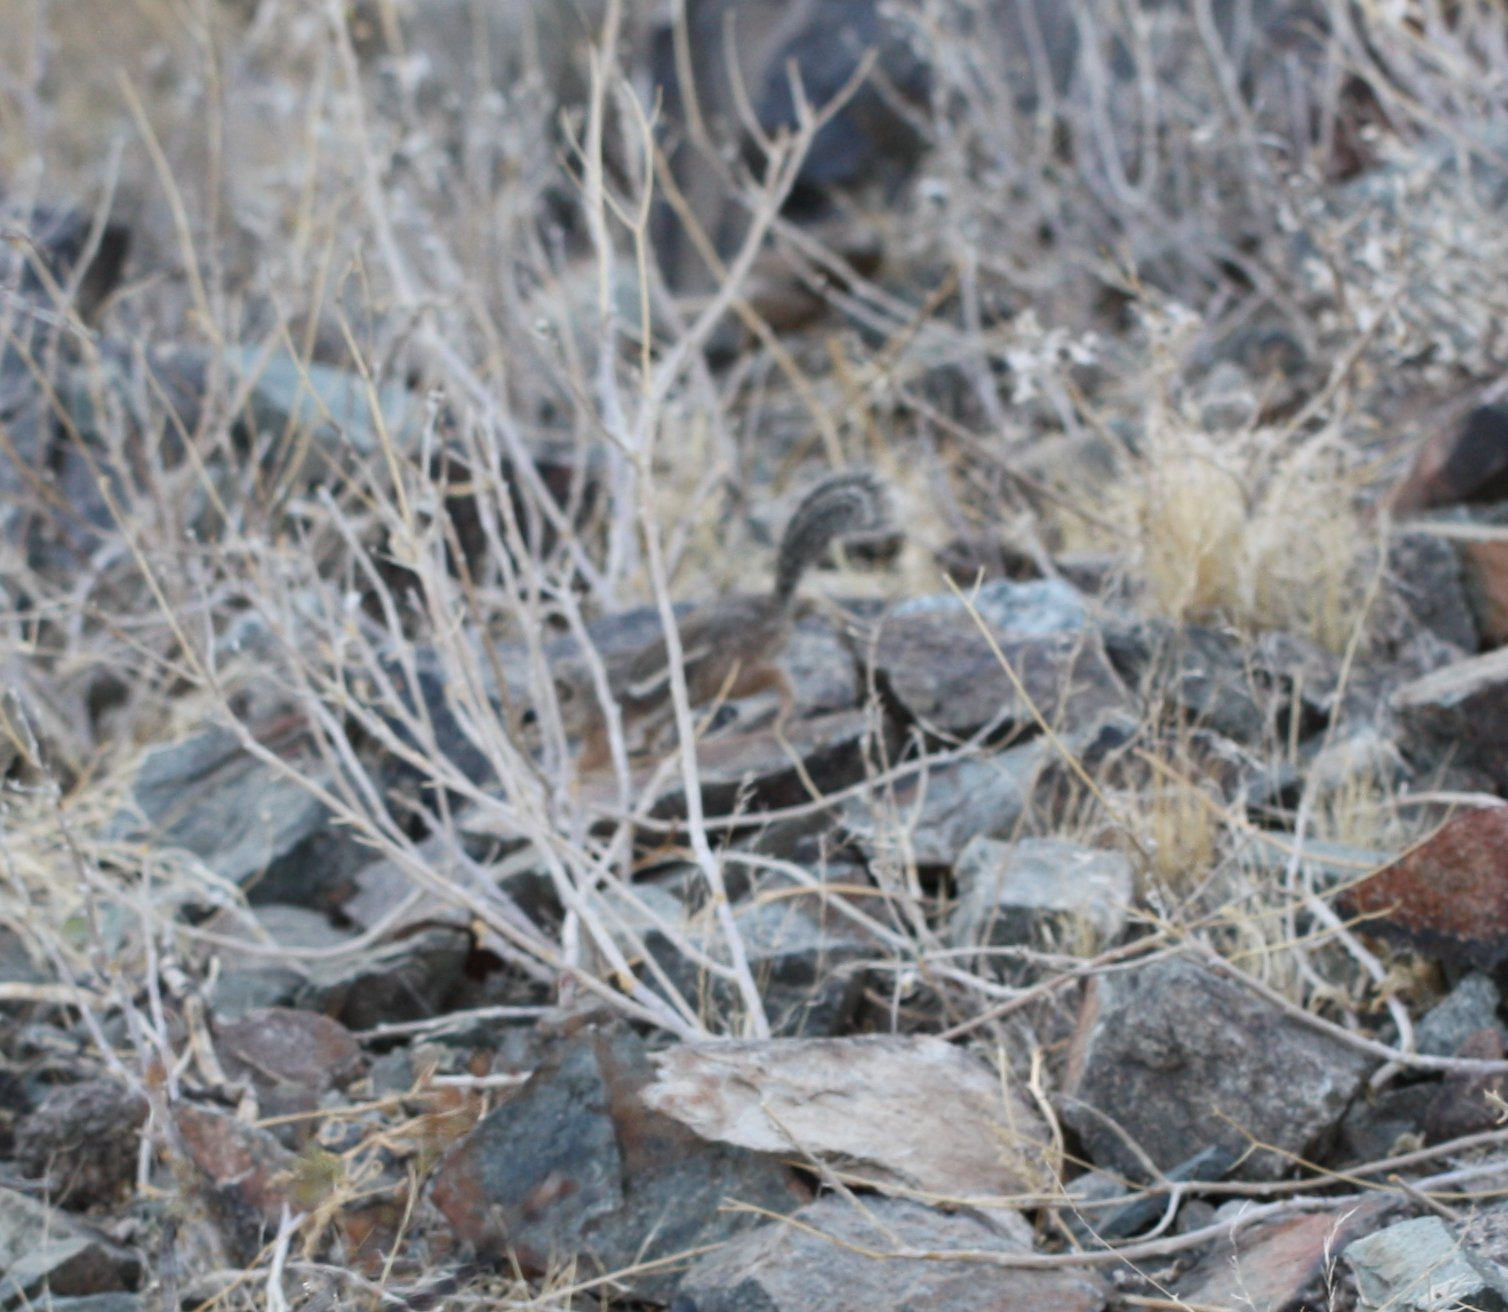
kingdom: Animalia
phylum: Chordata
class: Mammalia
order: Rodentia
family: Sciuridae
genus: Ammospermophilus
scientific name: Ammospermophilus harrisii
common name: Harris's antelope squirrel
